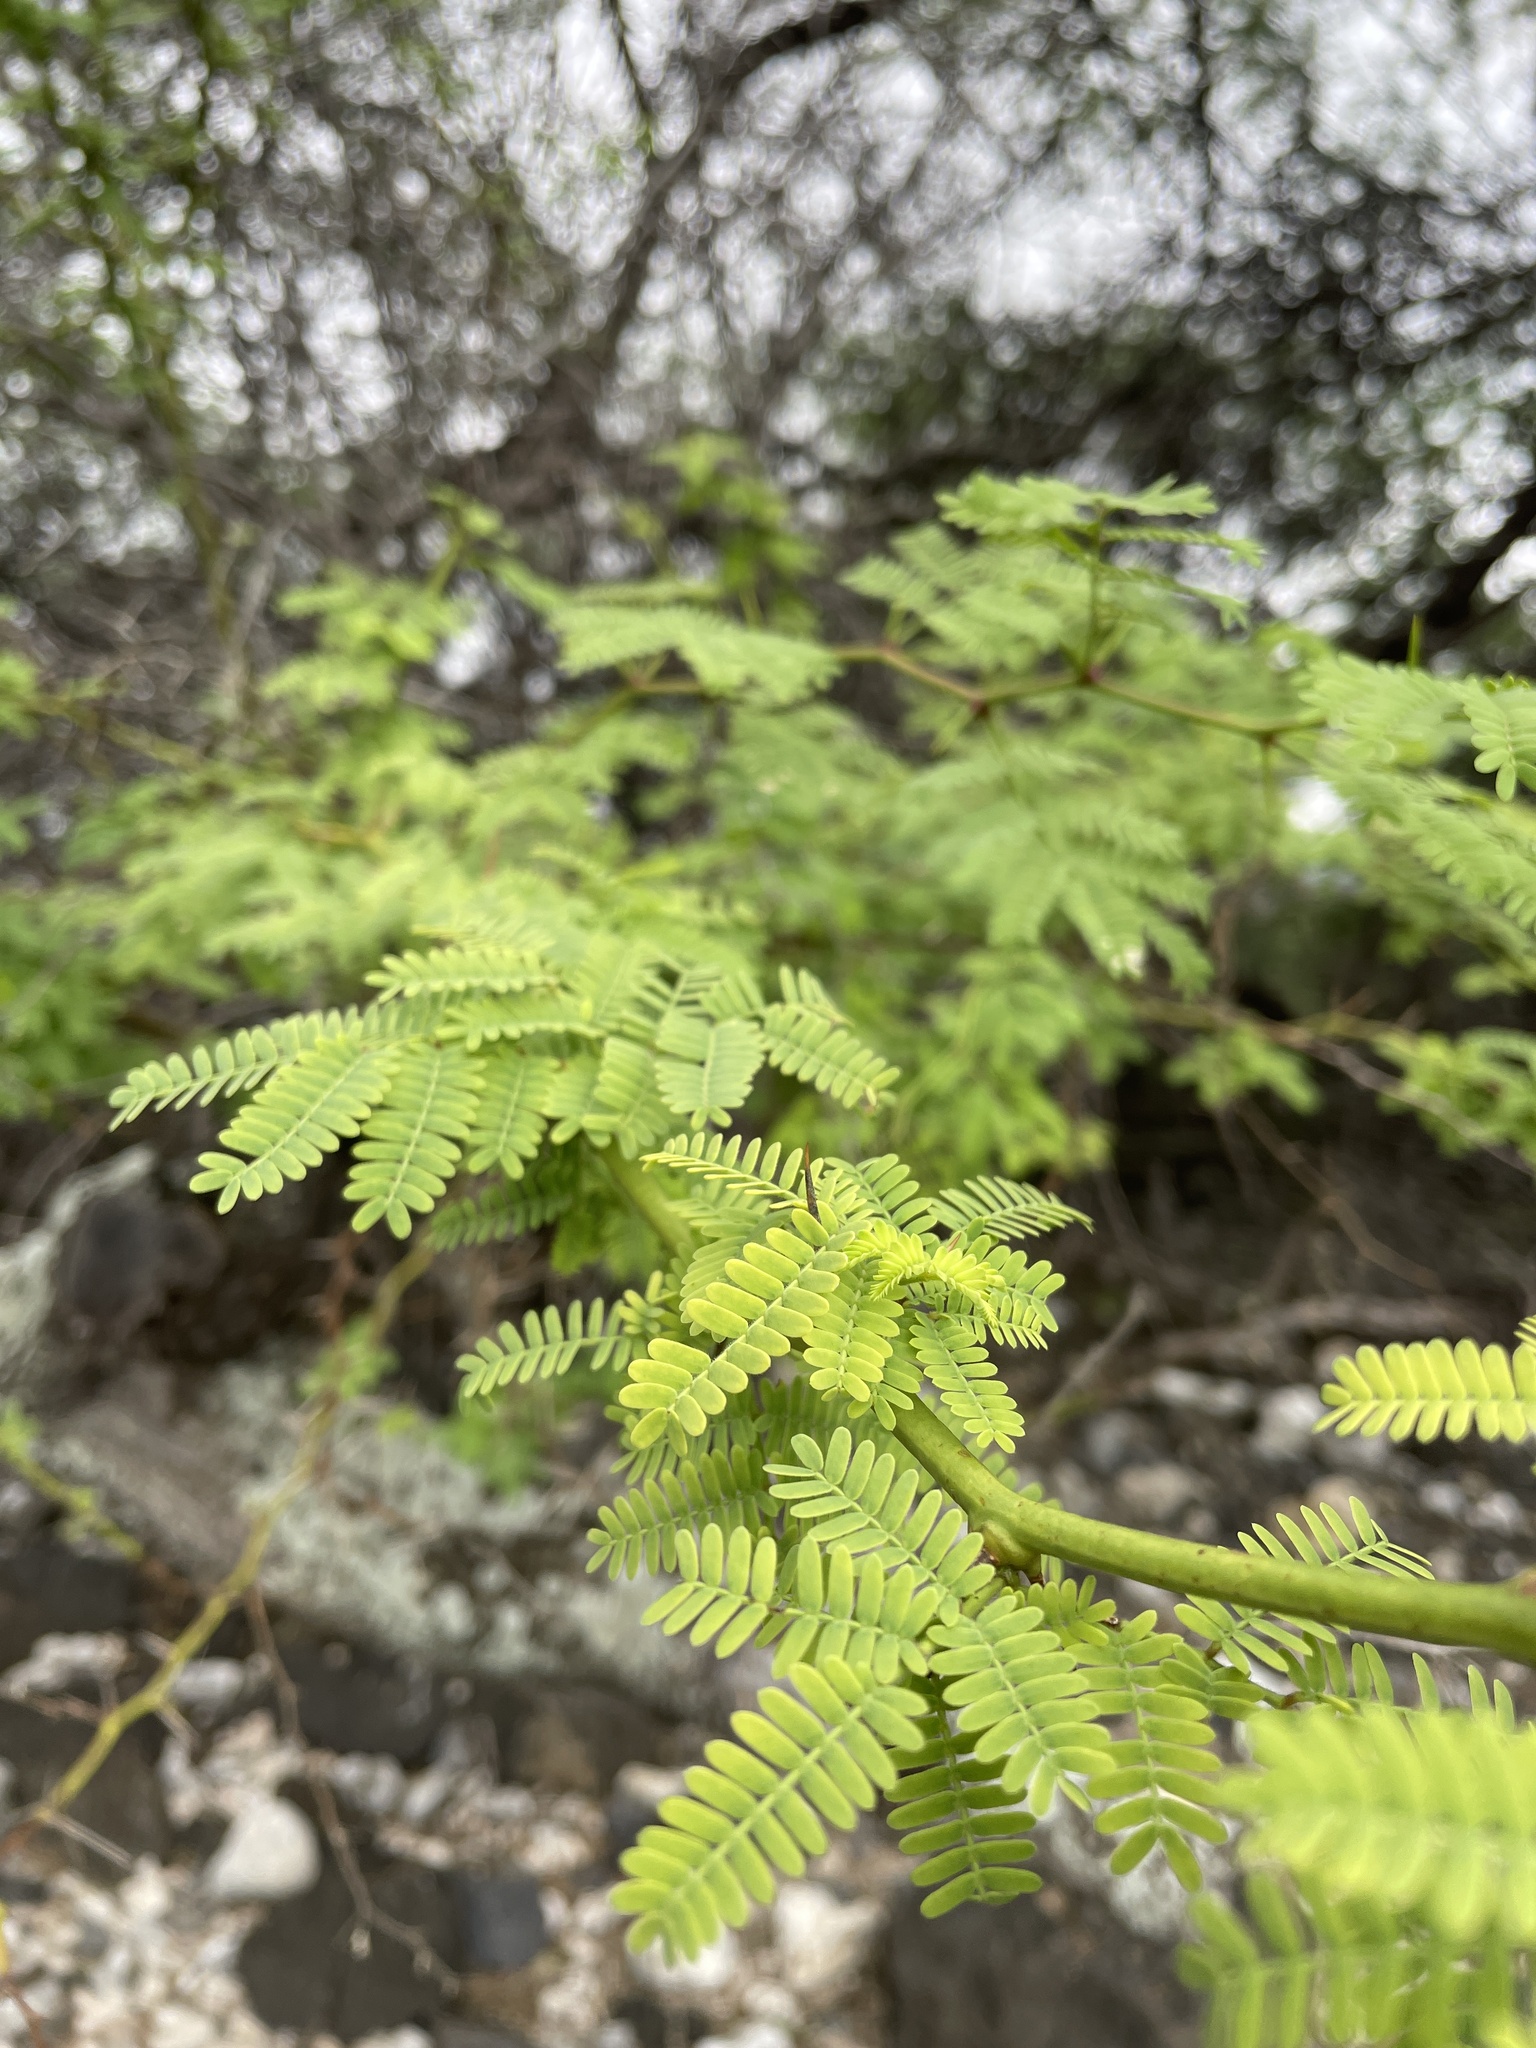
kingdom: Plantae
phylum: Tracheophyta
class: Magnoliopsida
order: Fabales
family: Fabaceae
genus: Prosopis
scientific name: Prosopis pallida
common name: Mesquite
